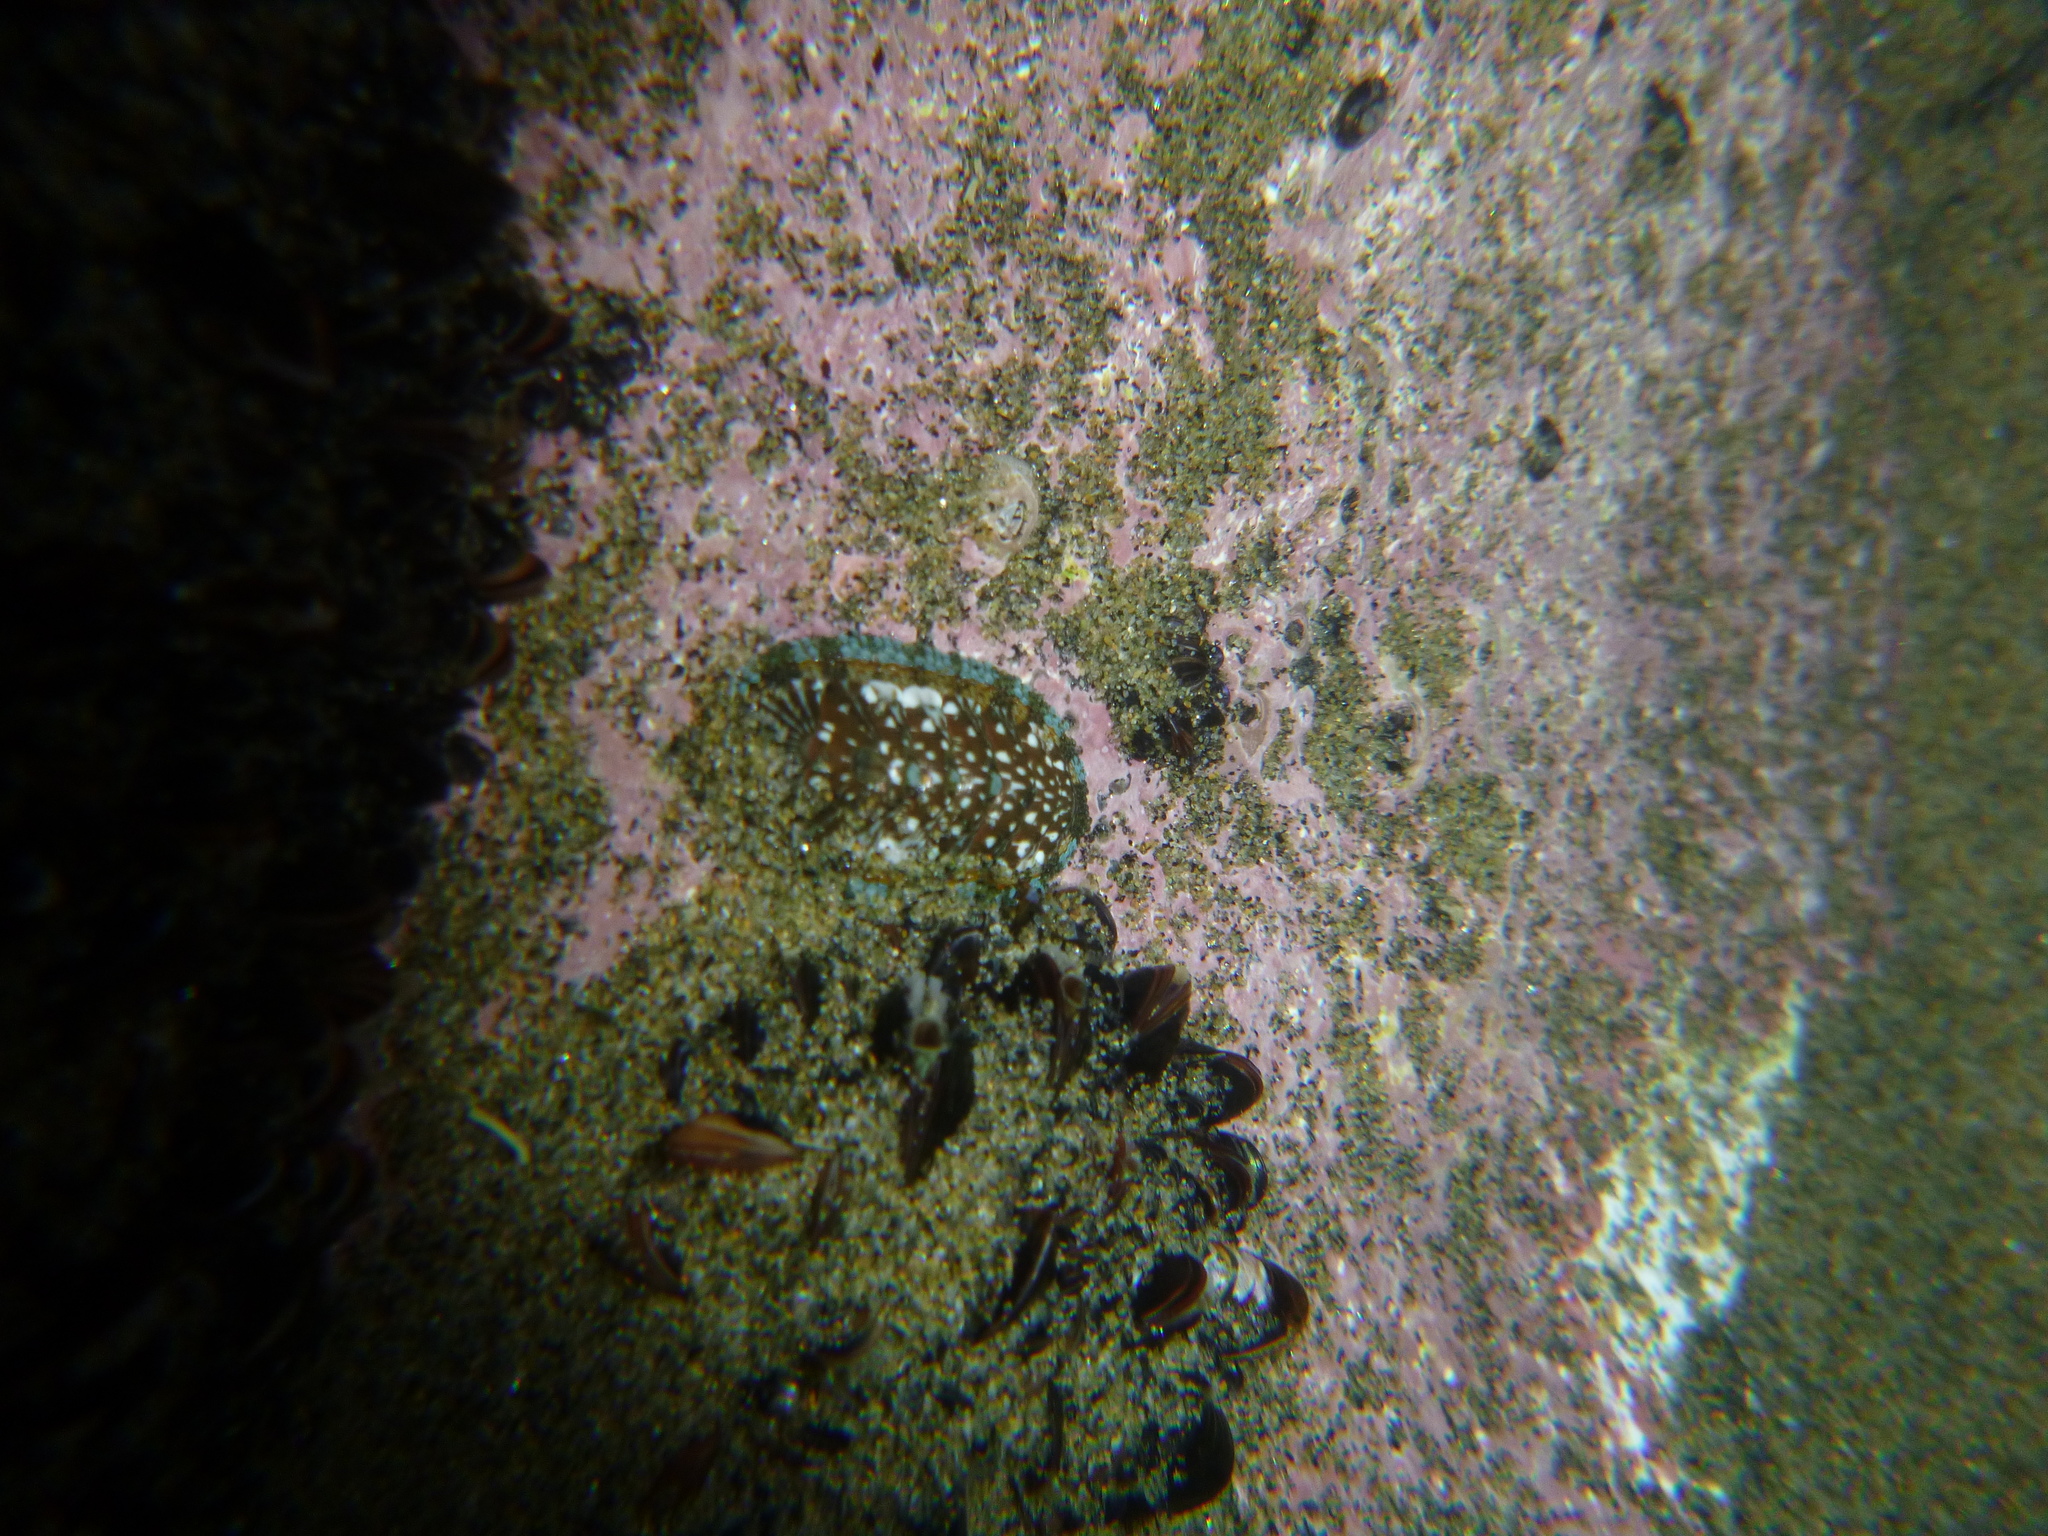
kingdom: Animalia
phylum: Mollusca
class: Polyplacophora
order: Chitonida
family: Chitonidae
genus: Sypharochiton
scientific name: Sypharochiton sinclairi
